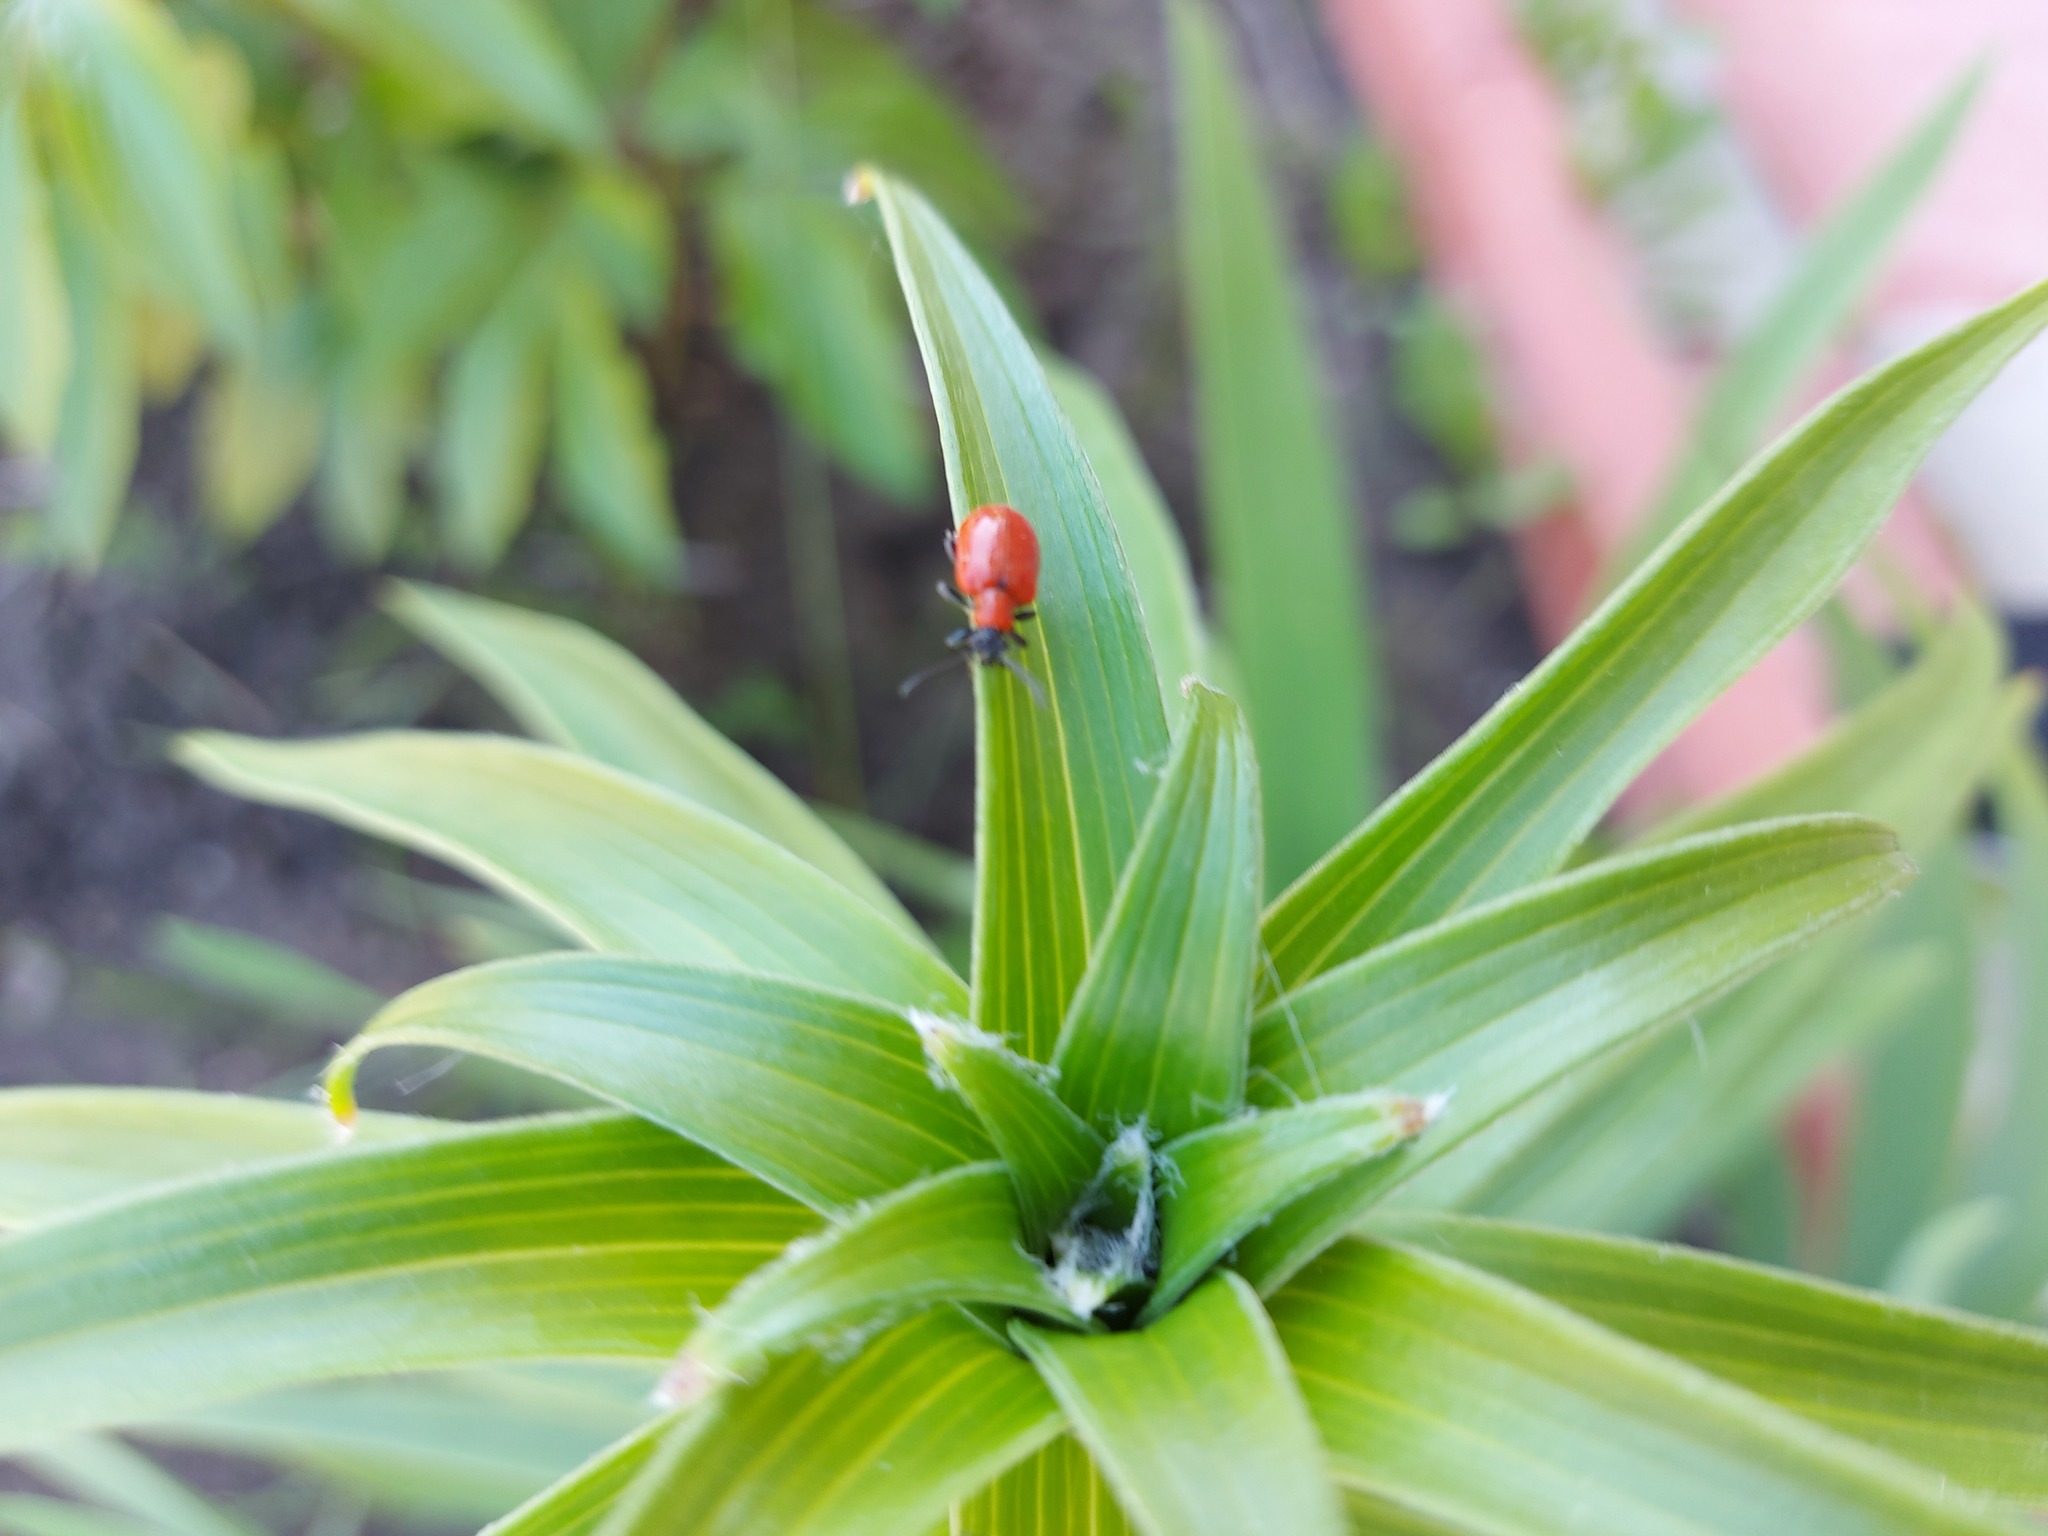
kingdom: Animalia
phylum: Arthropoda
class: Insecta
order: Coleoptera
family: Chrysomelidae
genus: Lilioceris
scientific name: Lilioceris lilii
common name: Lily beetle
